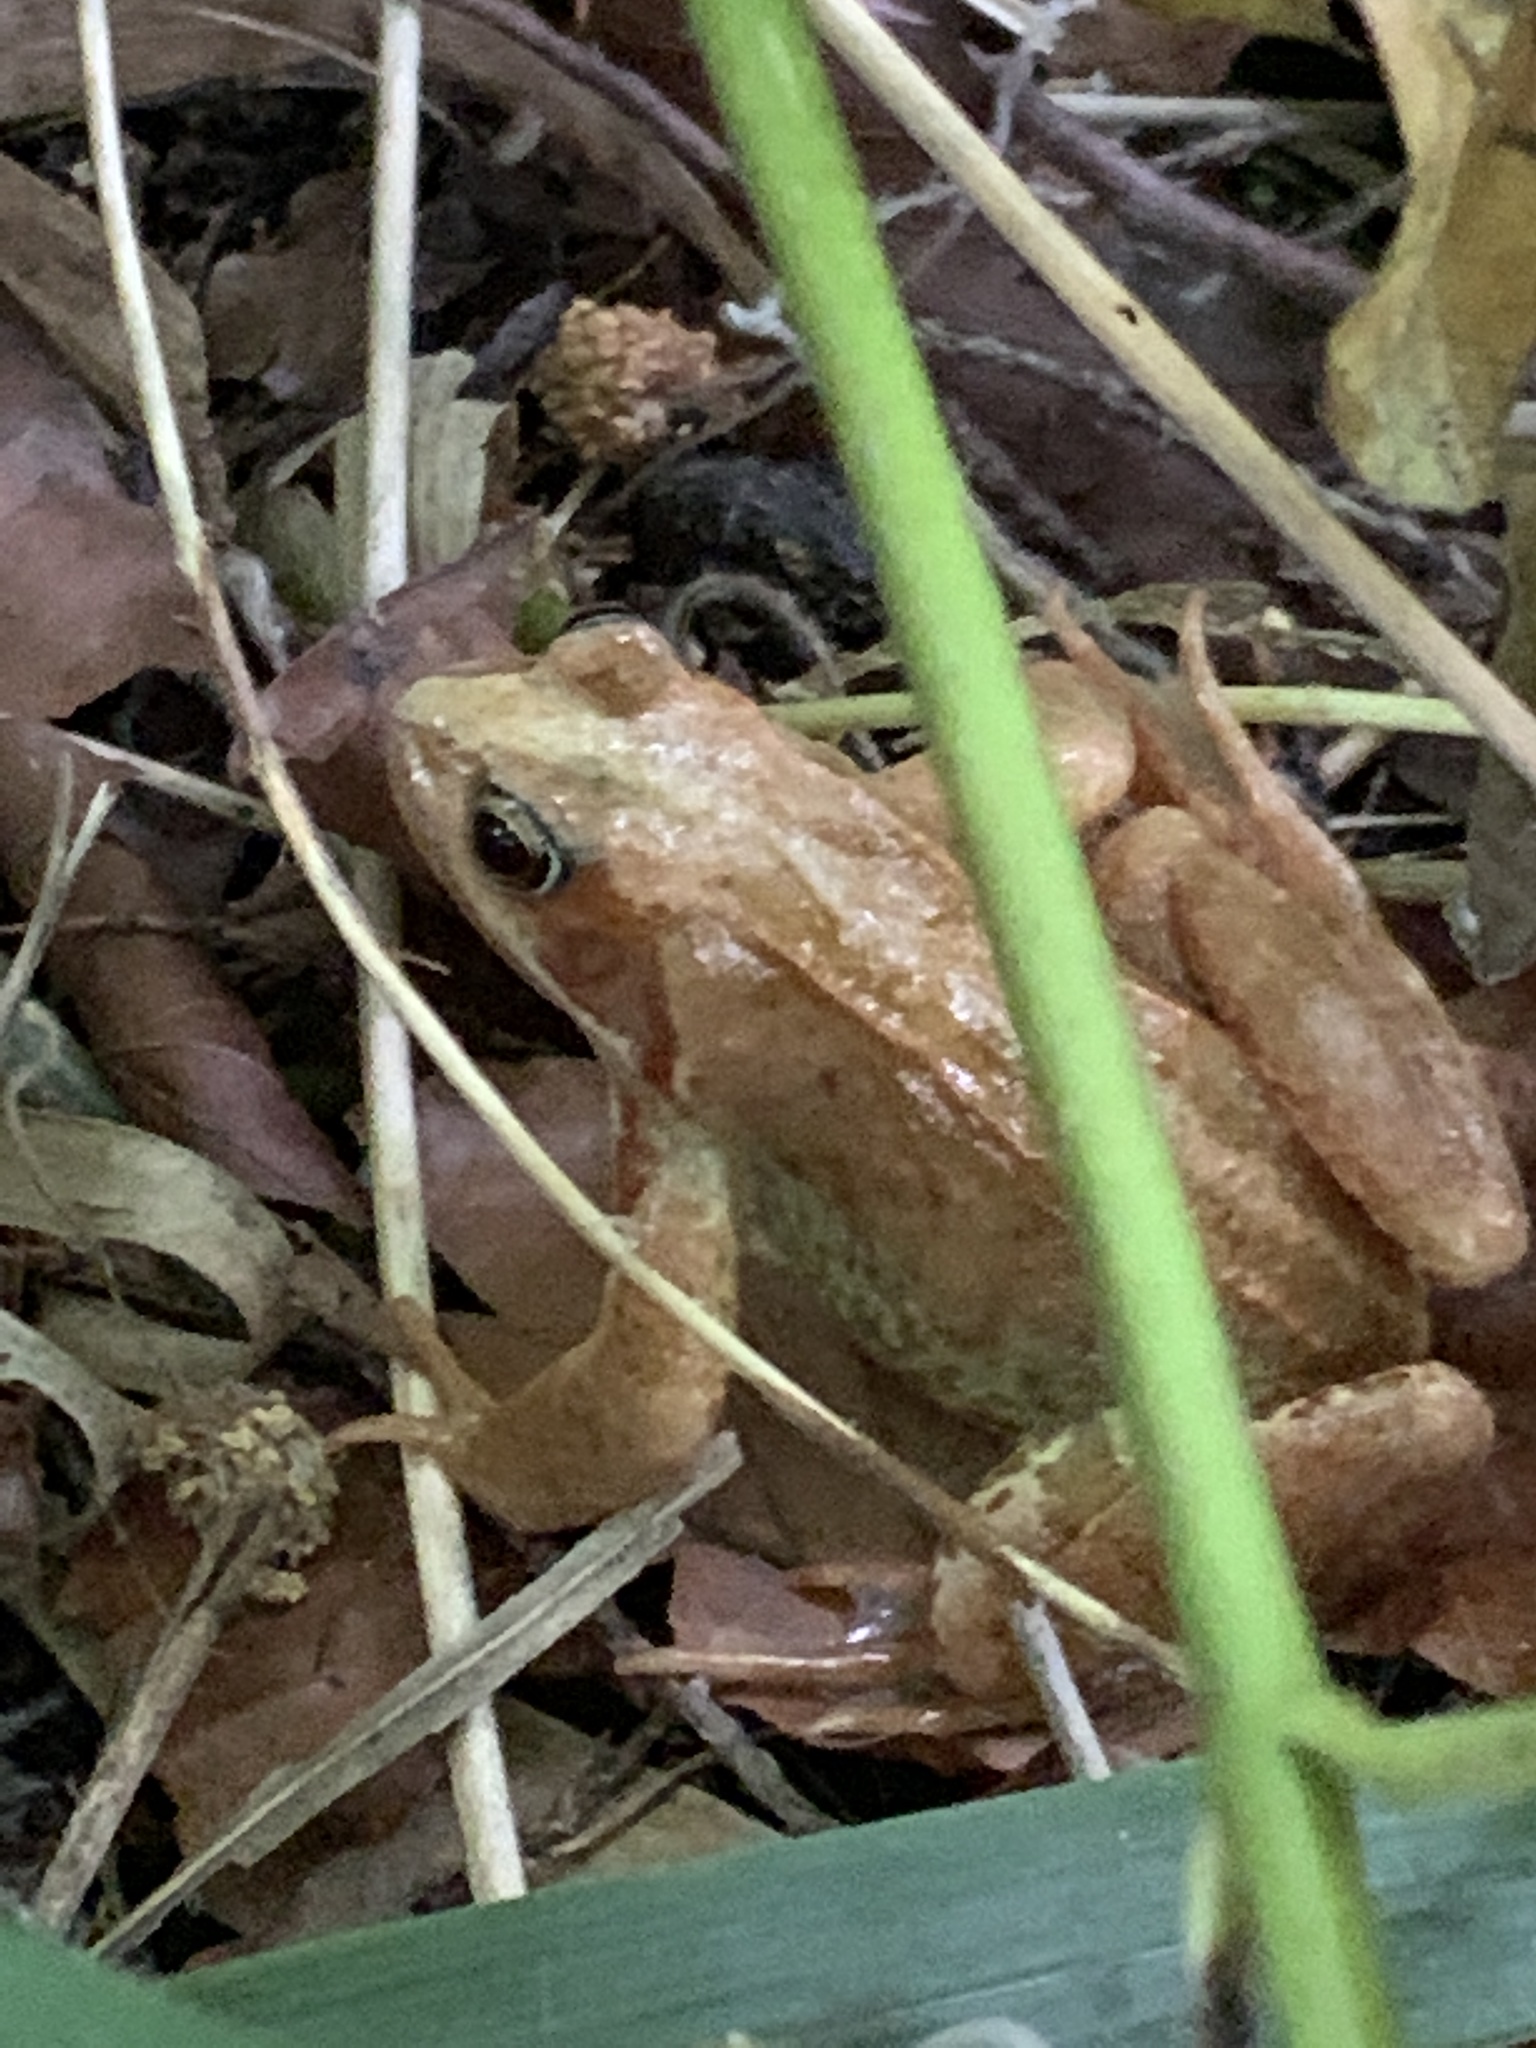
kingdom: Animalia
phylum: Chordata
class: Amphibia
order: Anura
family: Ranidae
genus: Rana
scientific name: Rana temporaria
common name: Common frog
